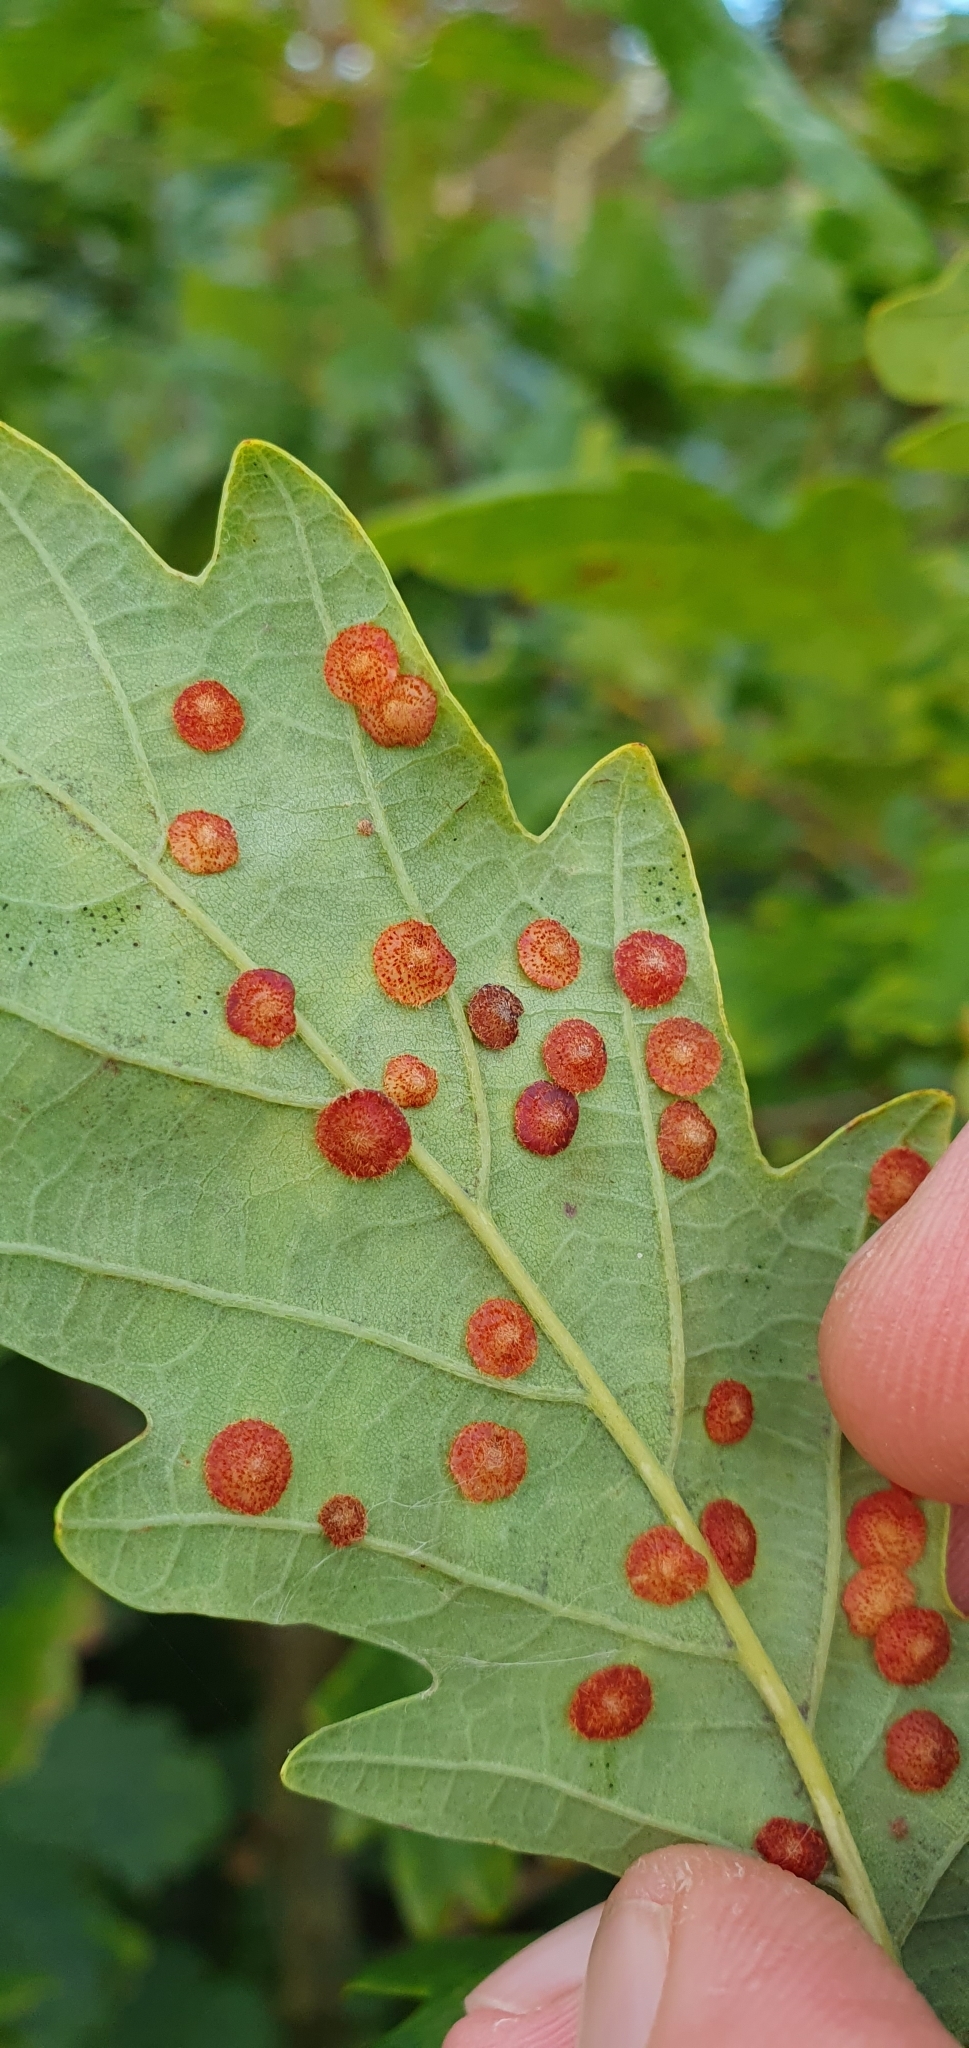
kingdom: Animalia
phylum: Arthropoda
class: Insecta
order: Hymenoptera
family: Cynipidae
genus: Neuroterus
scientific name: Neuroterus quercusbaccarum
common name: Common spangle gall
